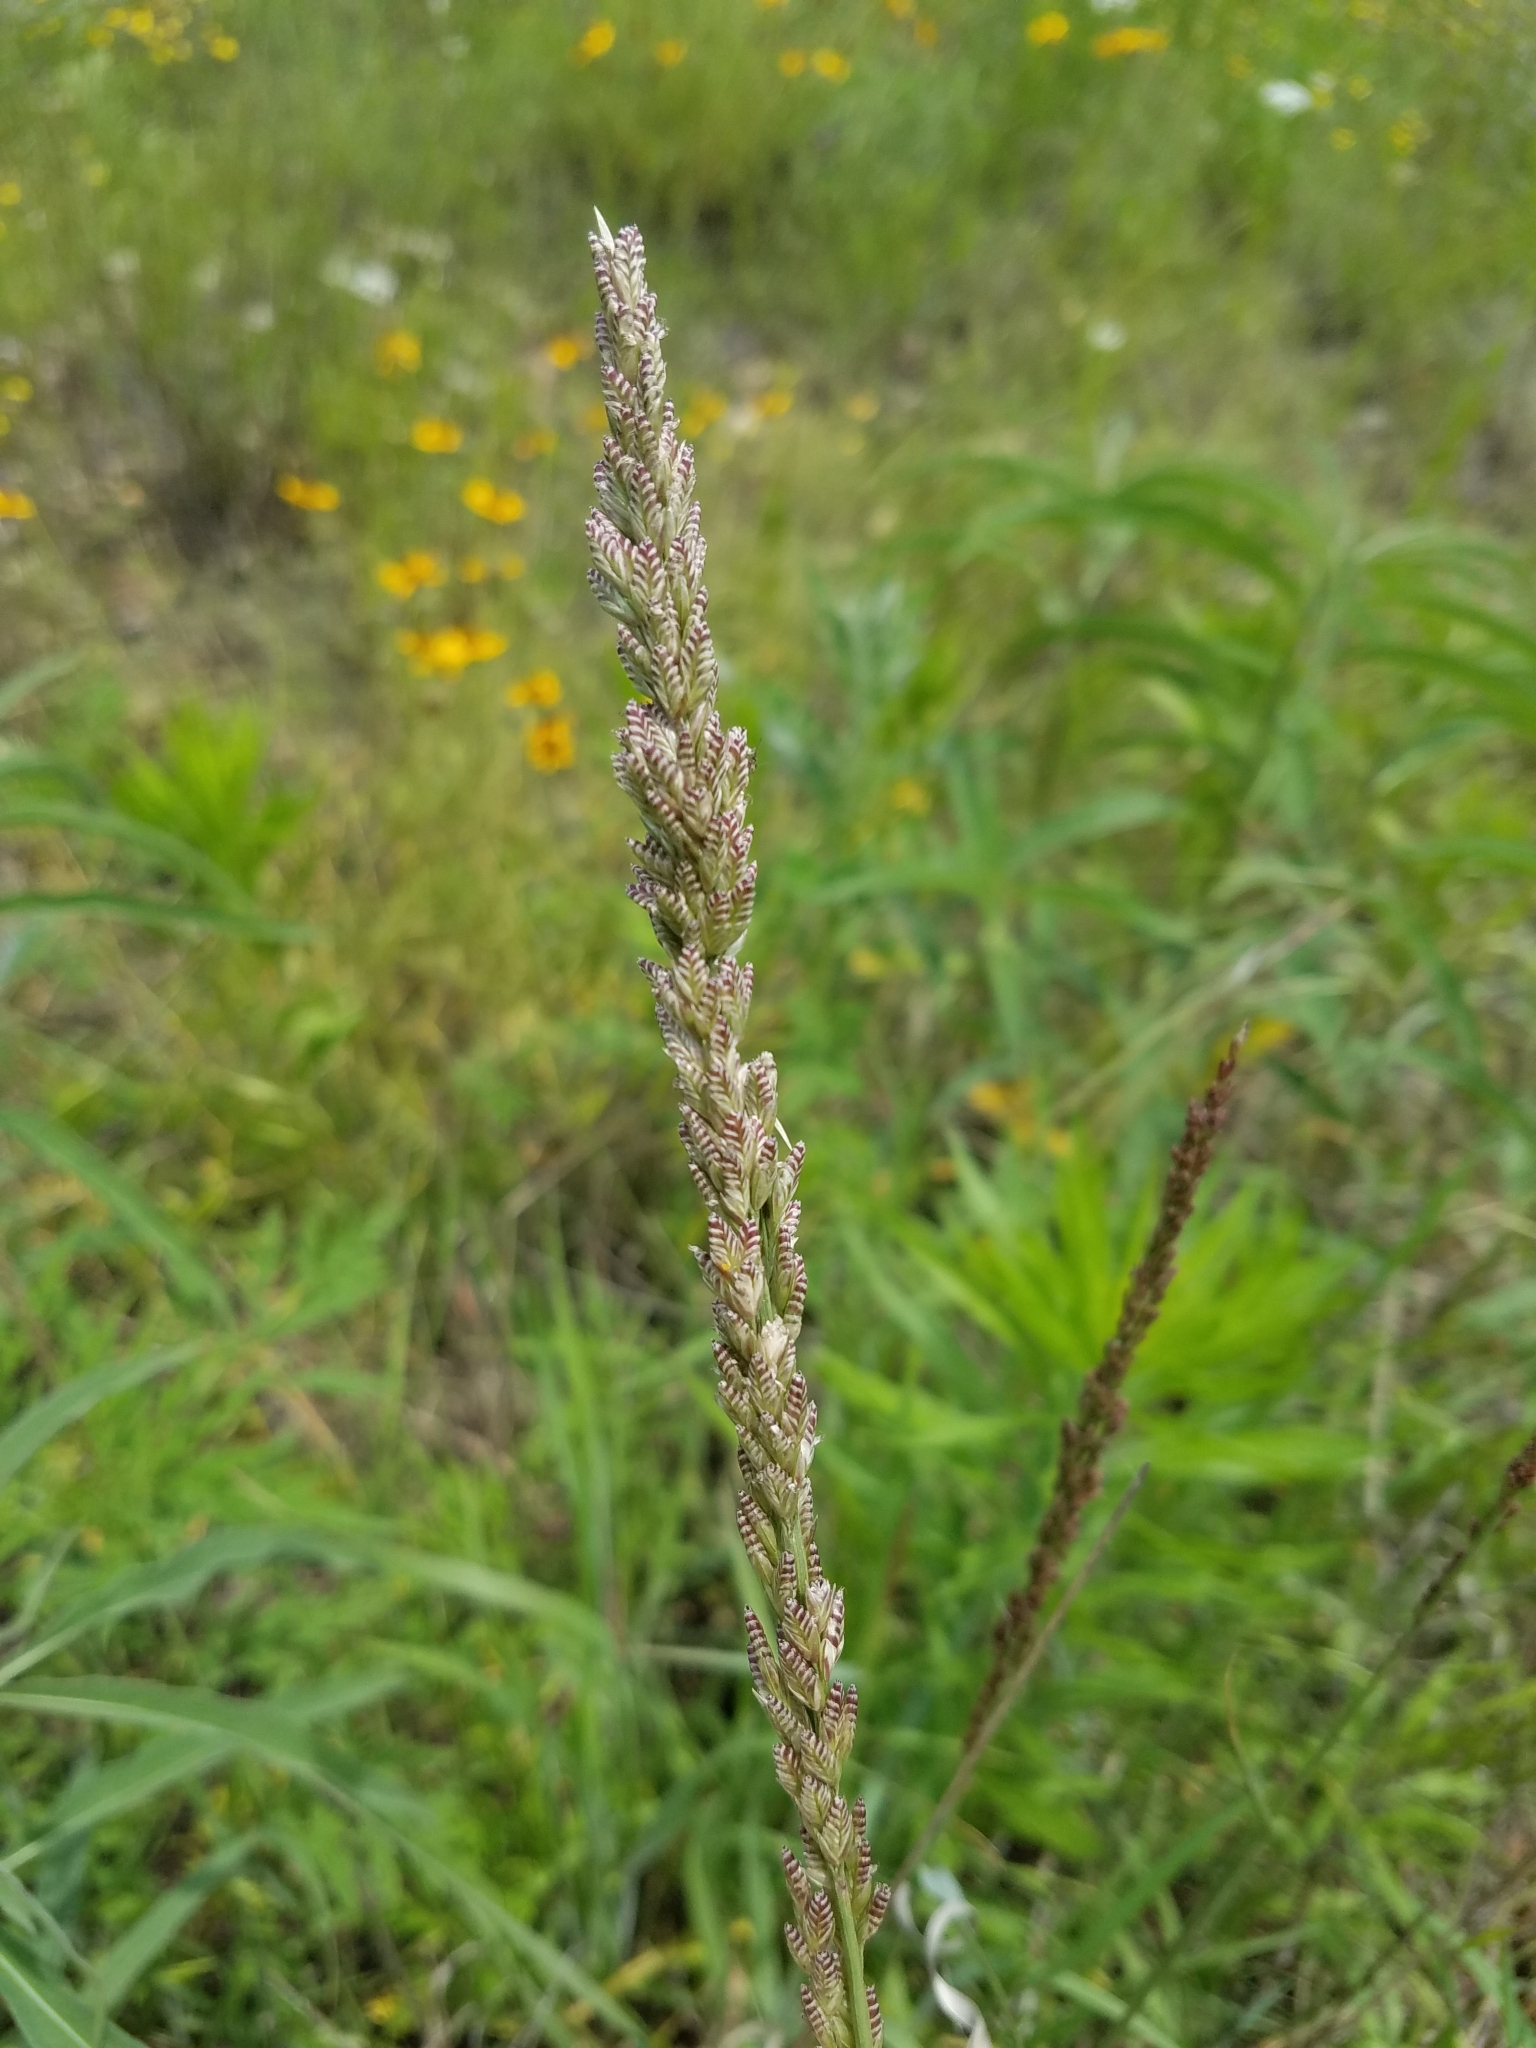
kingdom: Plantae
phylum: Tracheophyta
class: Liliopsida
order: Poales
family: Poaceae
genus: Tridens
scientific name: Tridens albescens
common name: White tridens
